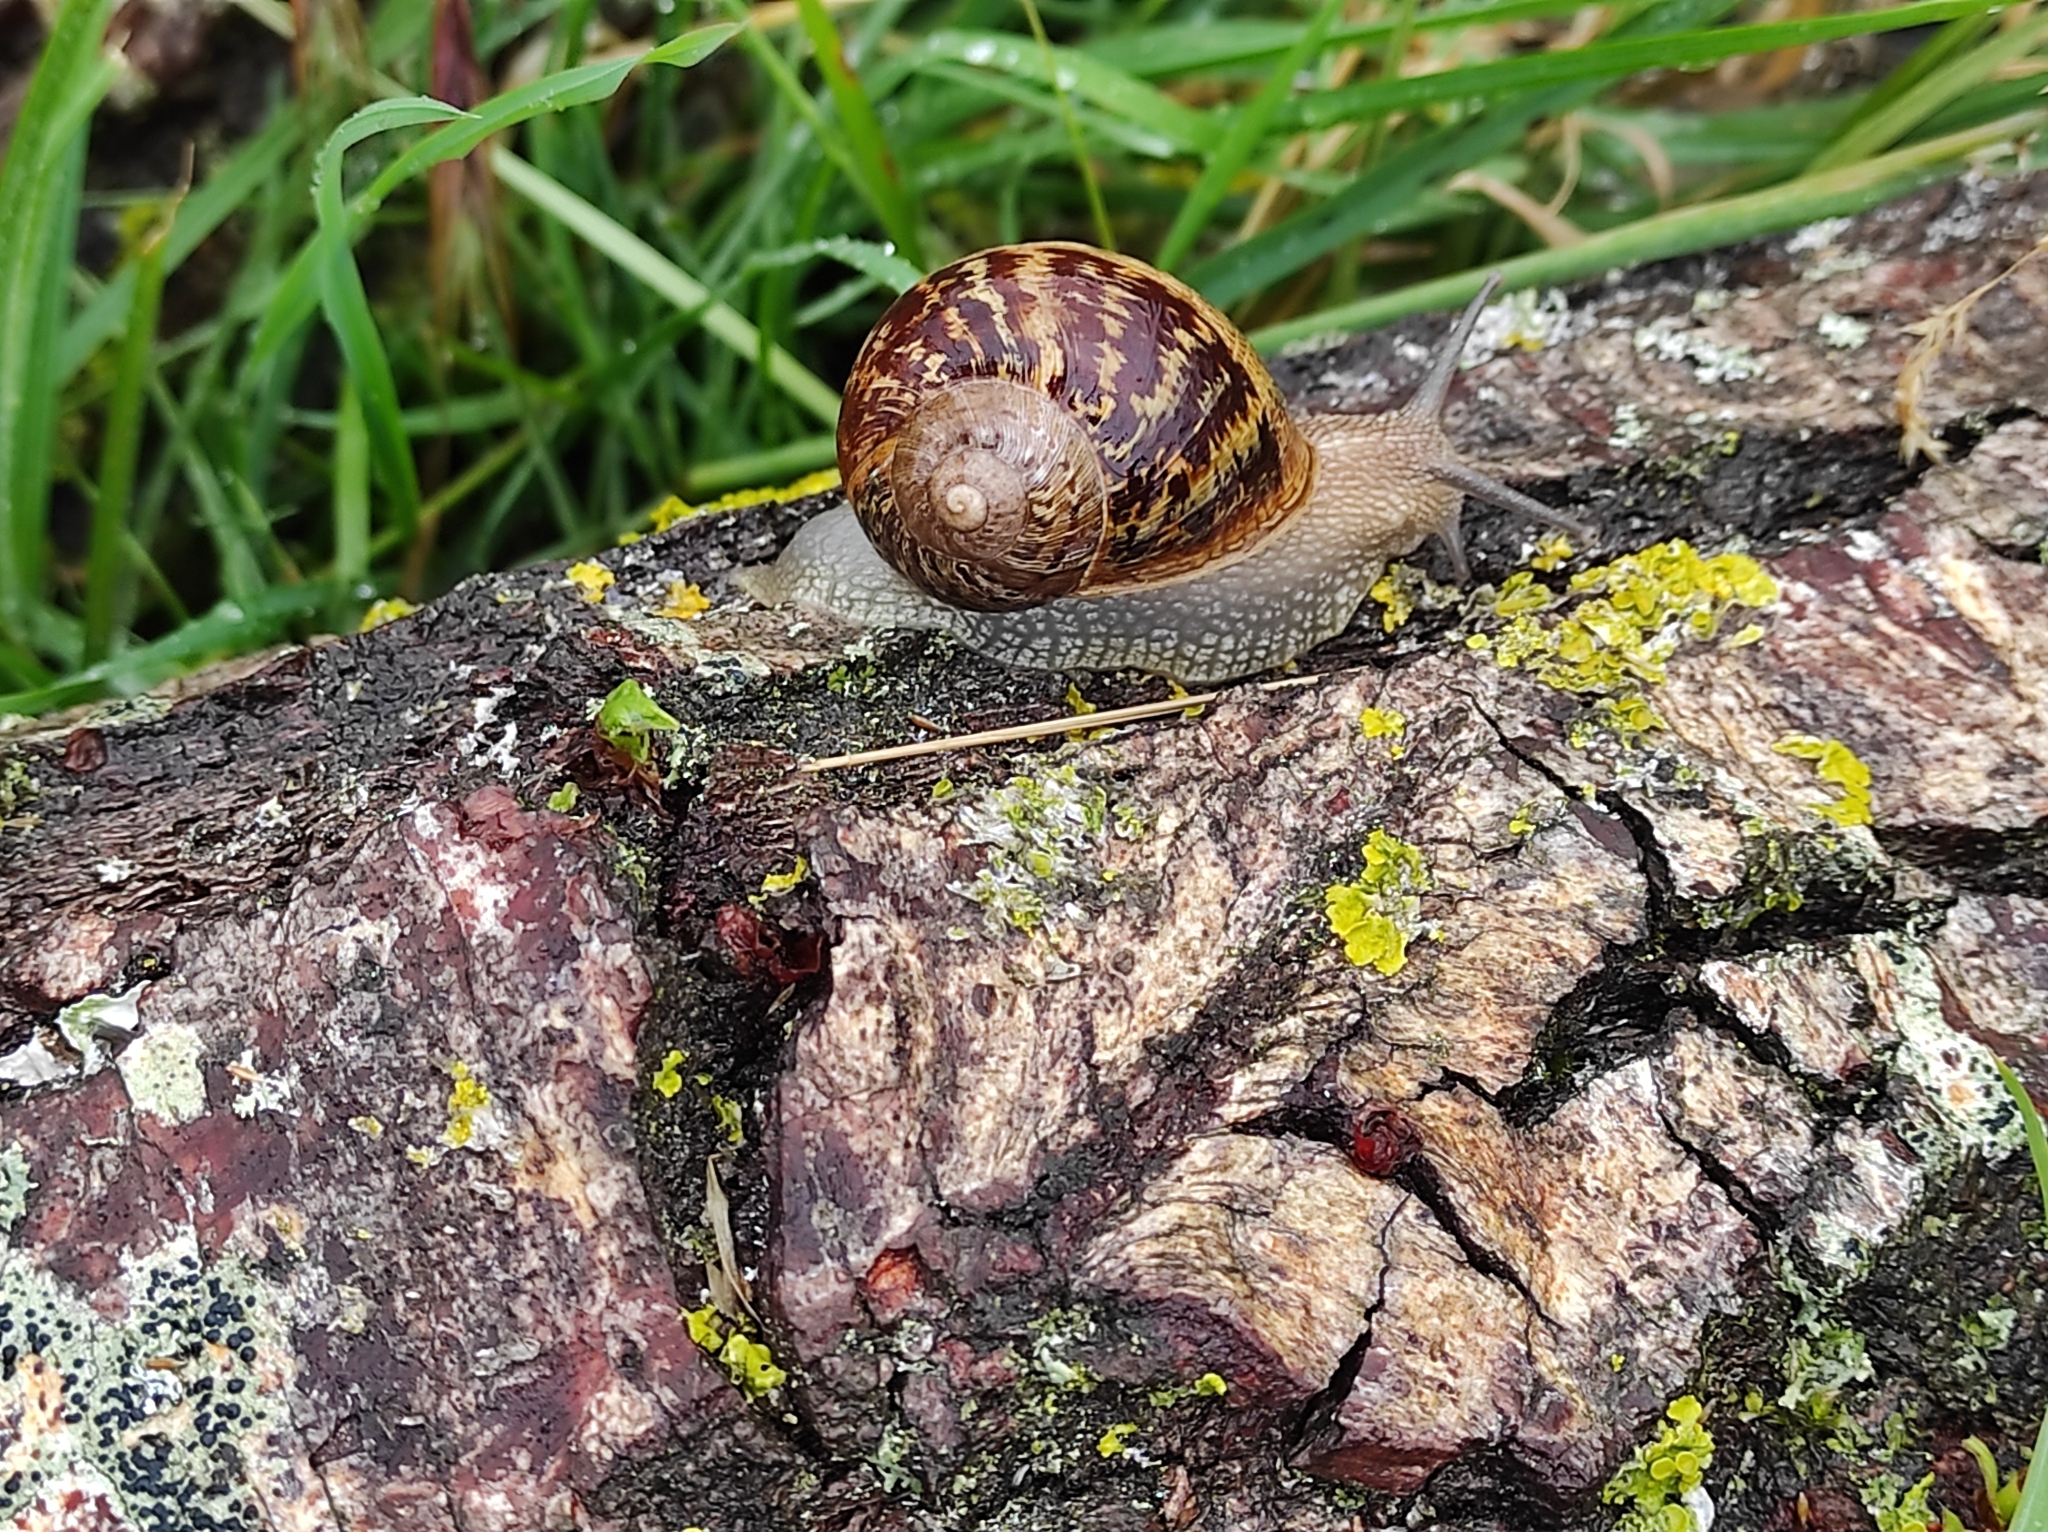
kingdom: Animalia
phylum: Mollusca
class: Gastropoda
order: Stylommatophora
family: Helicidae
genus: Cornu
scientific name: Cornu aspersum
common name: Brown garden snail
